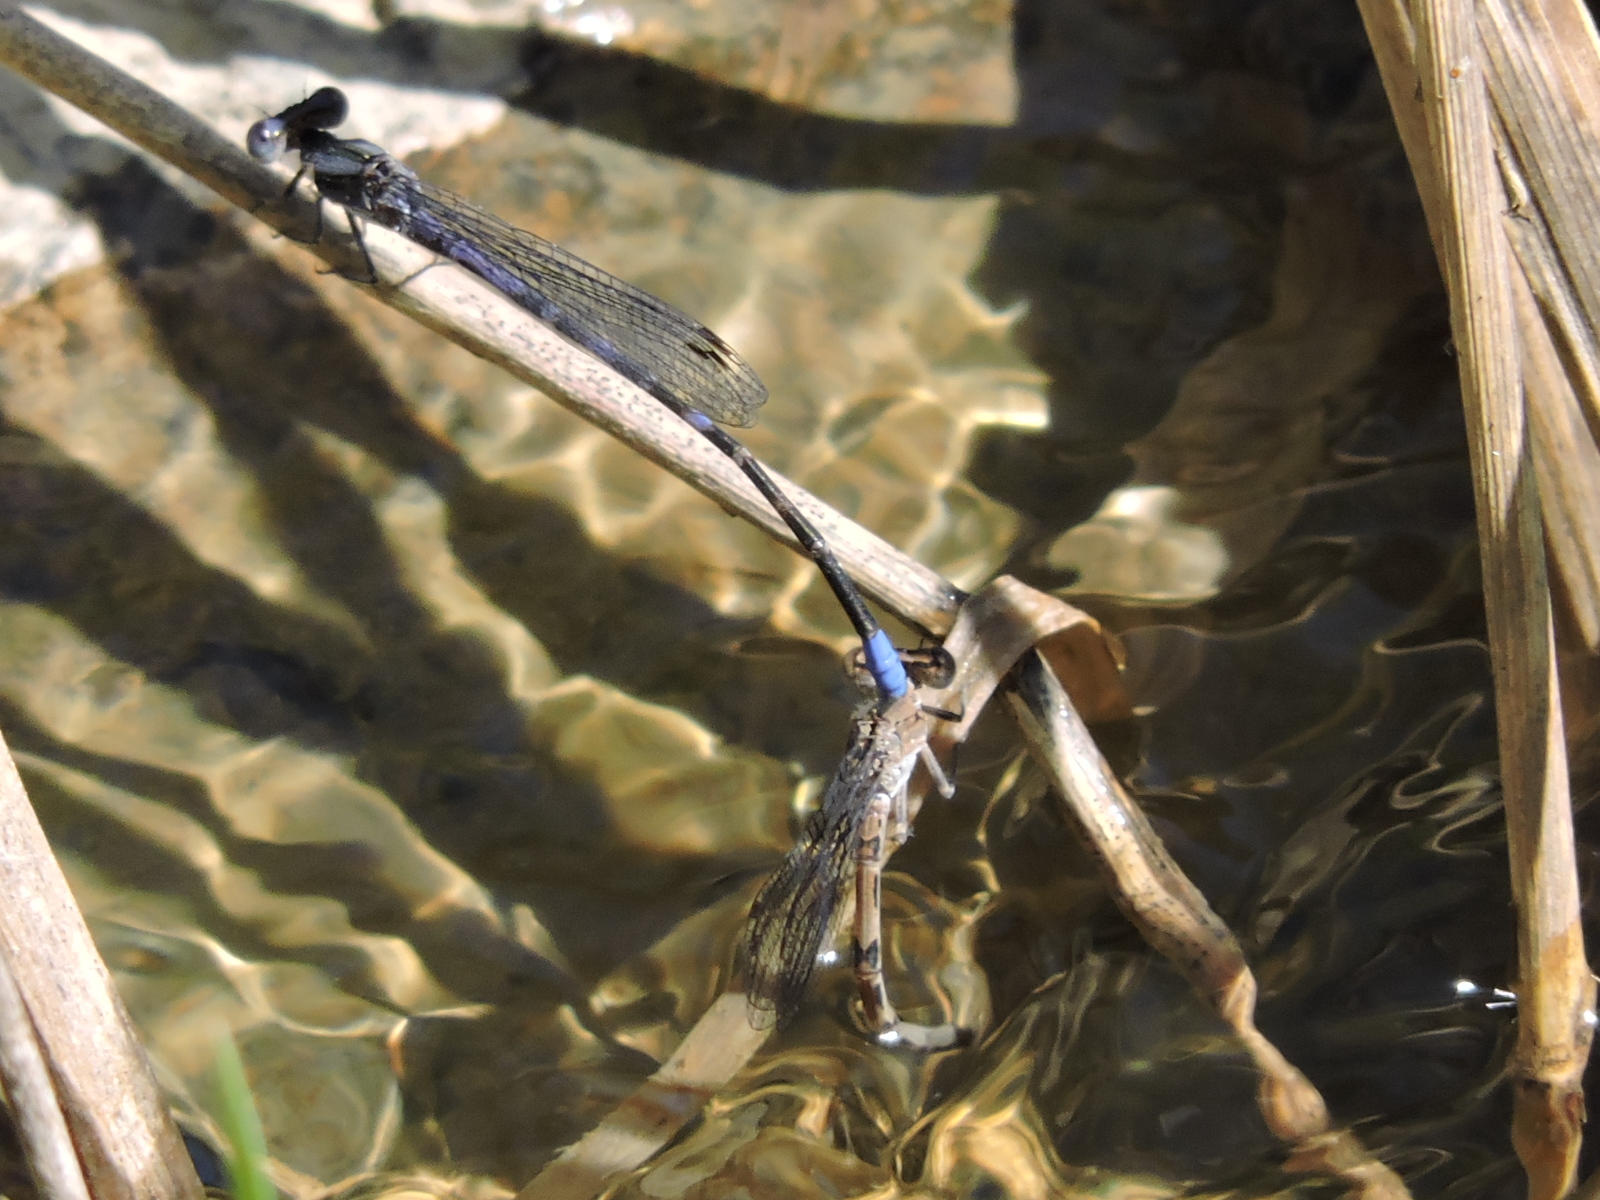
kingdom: Animalia
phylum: Arthropoda
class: Insecta
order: Odonata
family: Coenagrionidae
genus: Argia
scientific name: Argia immunda
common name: Kiowa dancer
